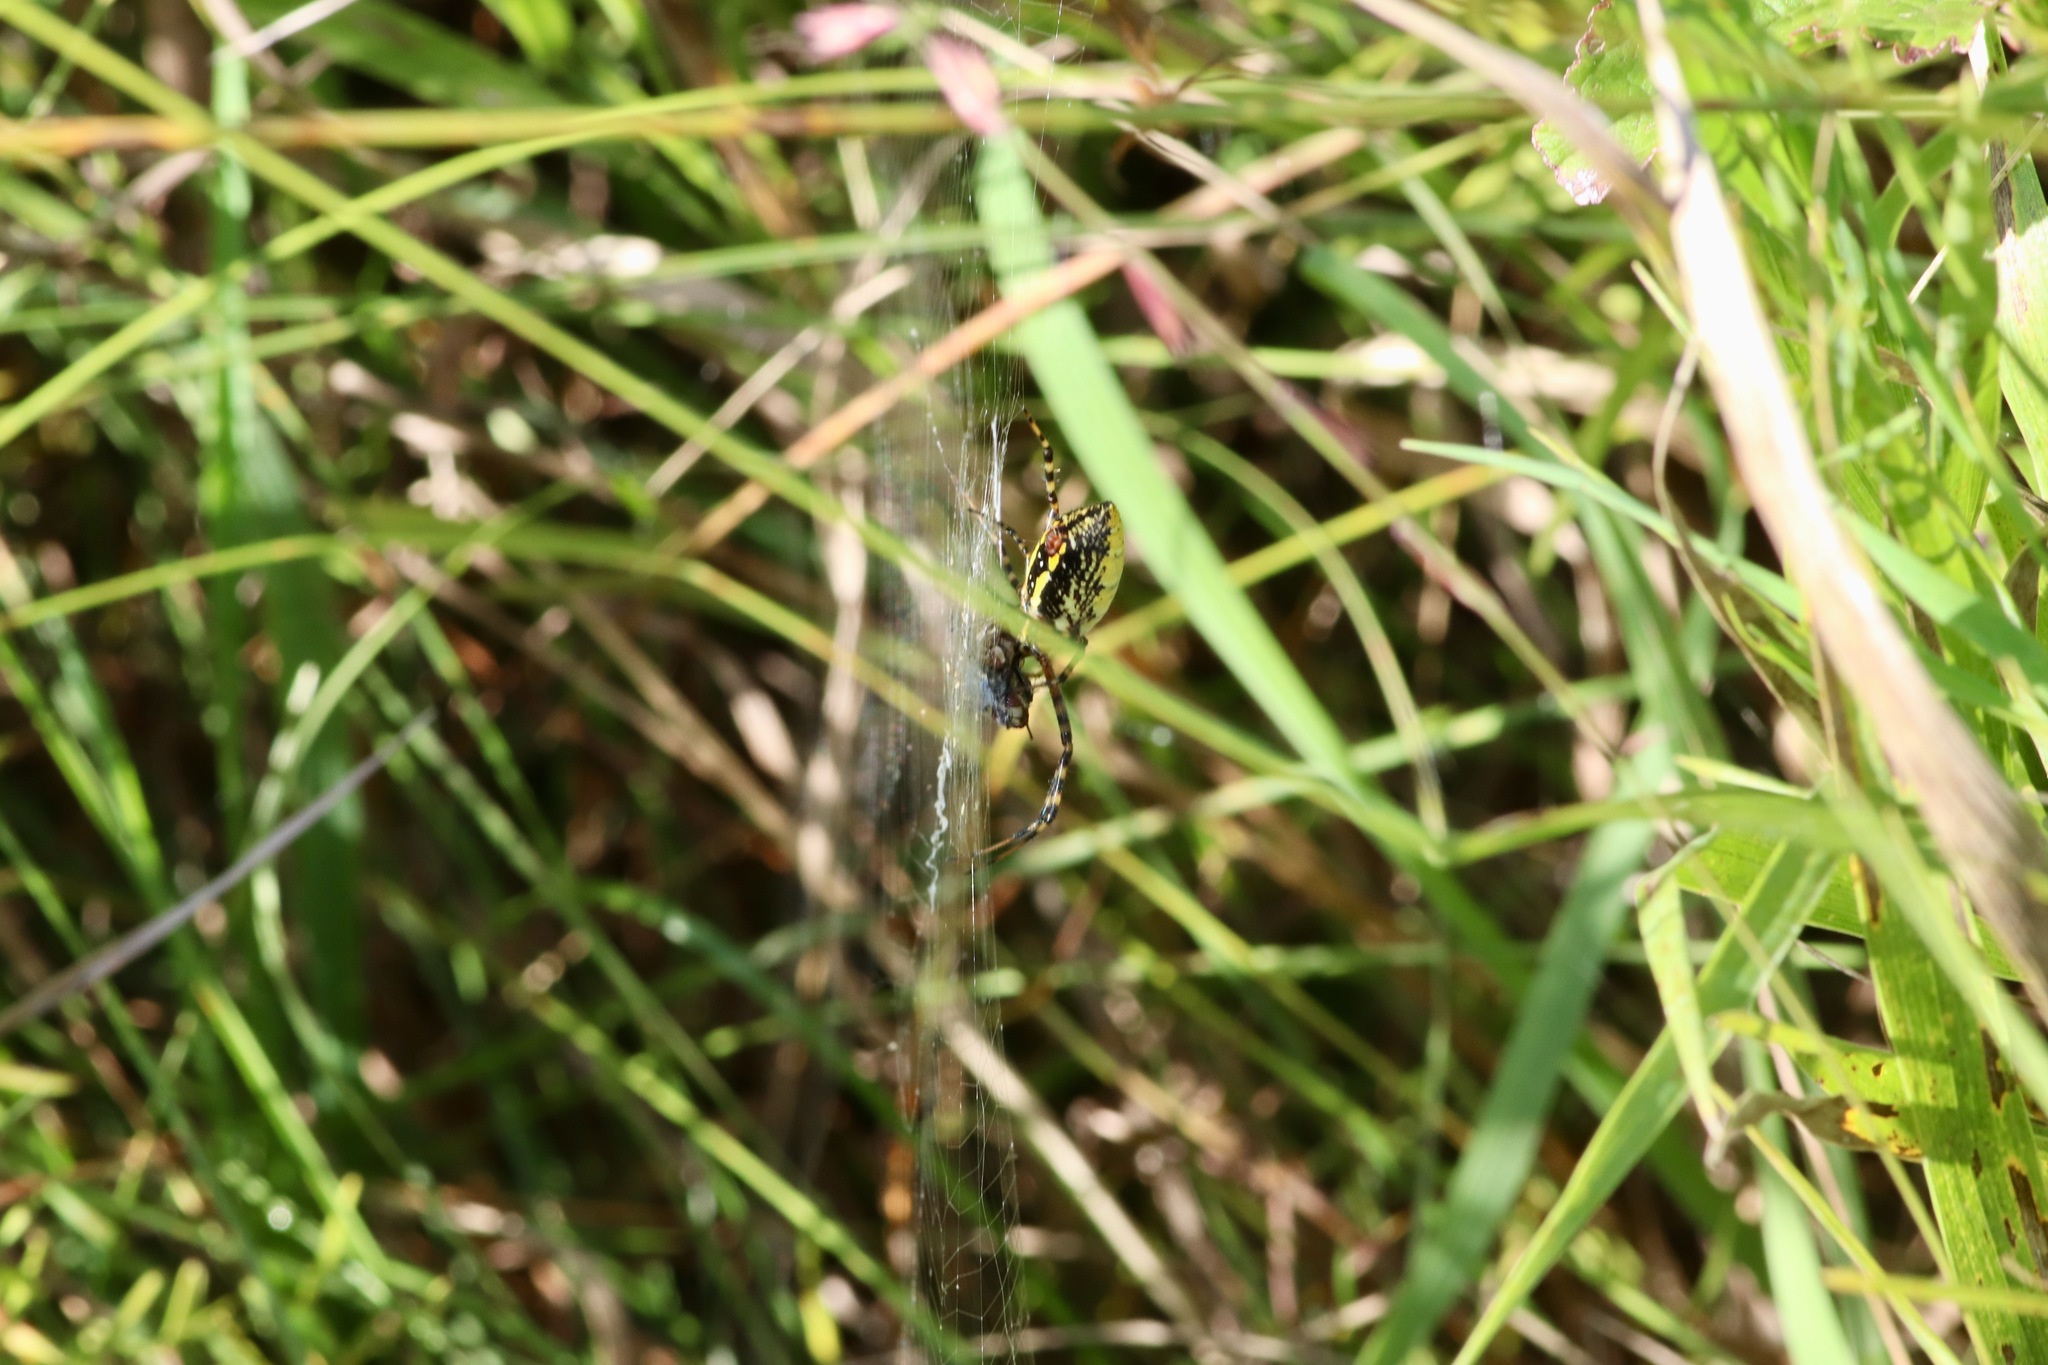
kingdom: Animalia
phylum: Arthropoda
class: Arachnida
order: Araneae
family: Araneidae
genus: Argiope
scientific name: Argiope trifasciata
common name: Banded garden spider
